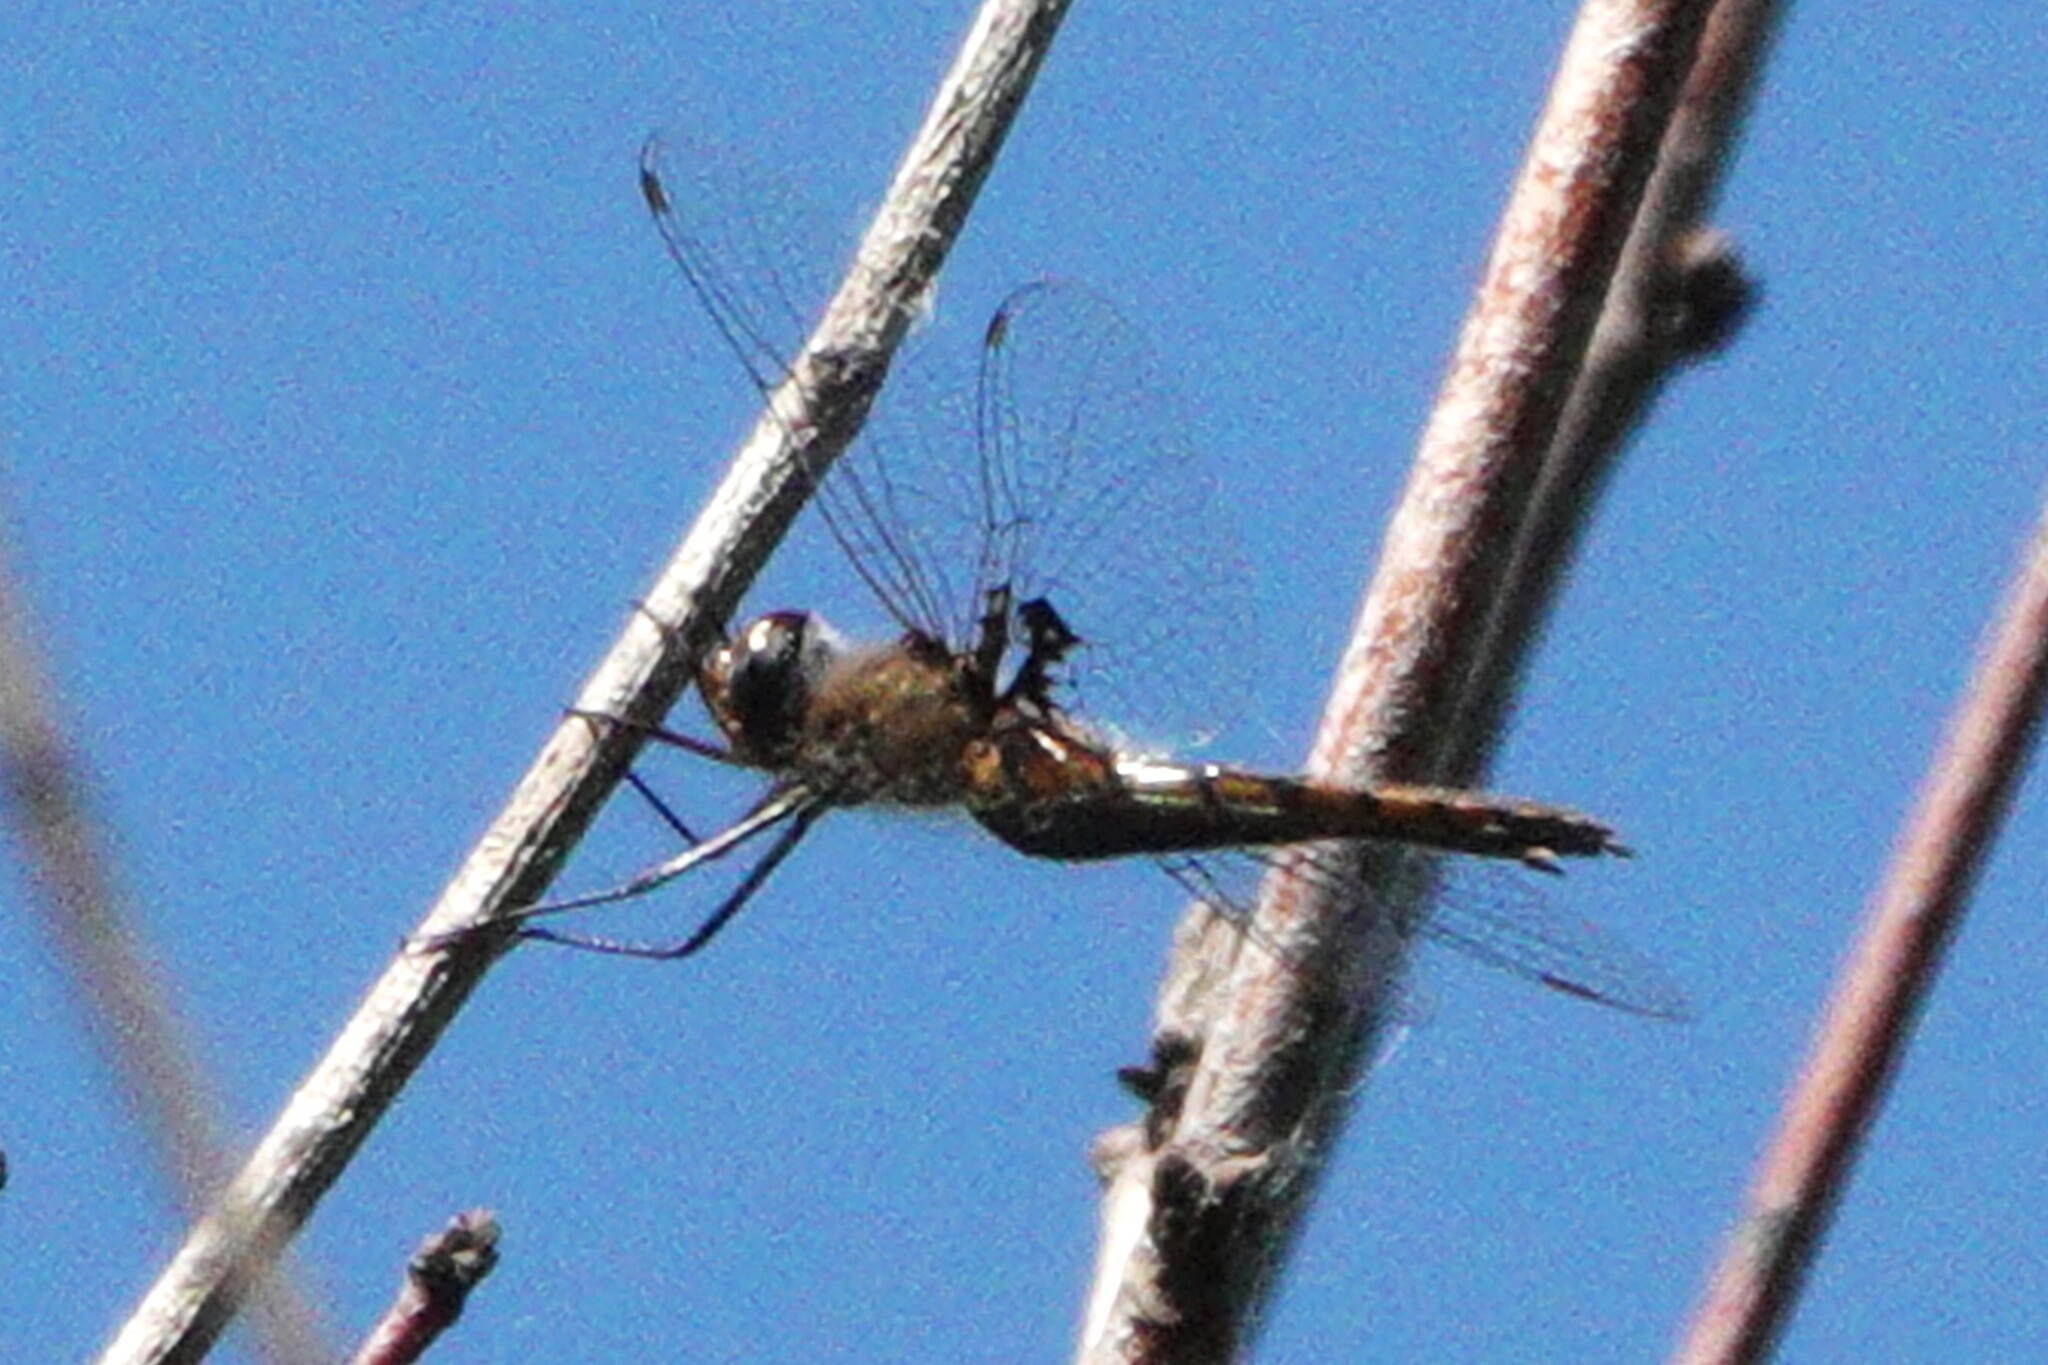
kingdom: Animalia
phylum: Arthropoda
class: Insecta
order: Odonata
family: Corduliidae
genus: Epitheca
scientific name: Epitheca cynosura
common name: Common baskettail
